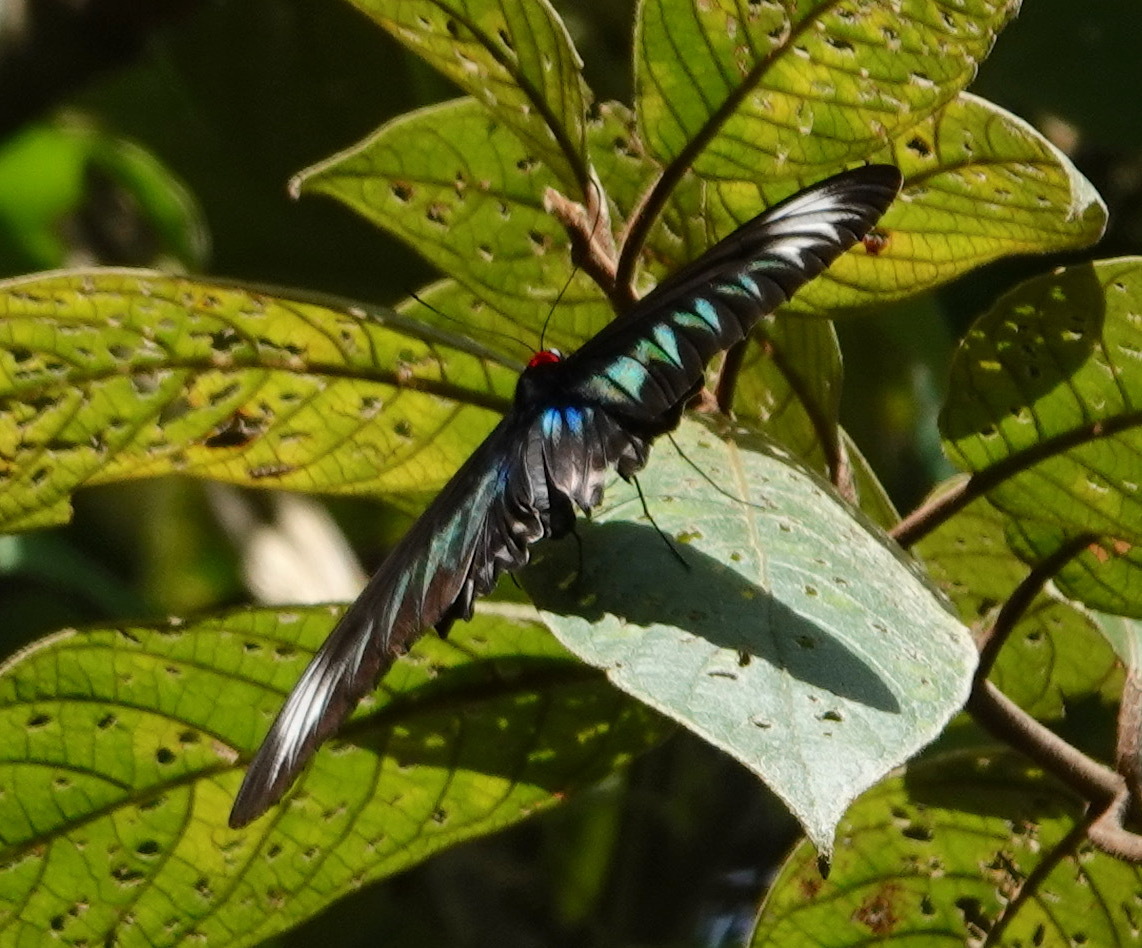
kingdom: Animalia
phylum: Arthropoda
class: Insecta
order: Lepidoptera
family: Papilionidae
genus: Trogonoptera
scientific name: Trogonoptera brookiana
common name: Raja brooke's birdwing
